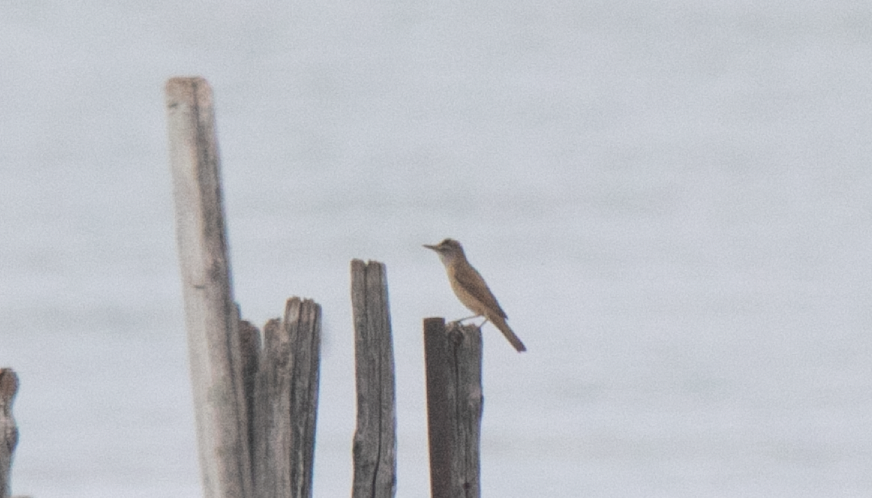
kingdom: Animalia
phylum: Chordata
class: Aves
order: Passeriformes
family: Acrocephalidae
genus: Acrocephalus
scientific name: Acrocephalus arundinaceus
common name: Great reed warbler
